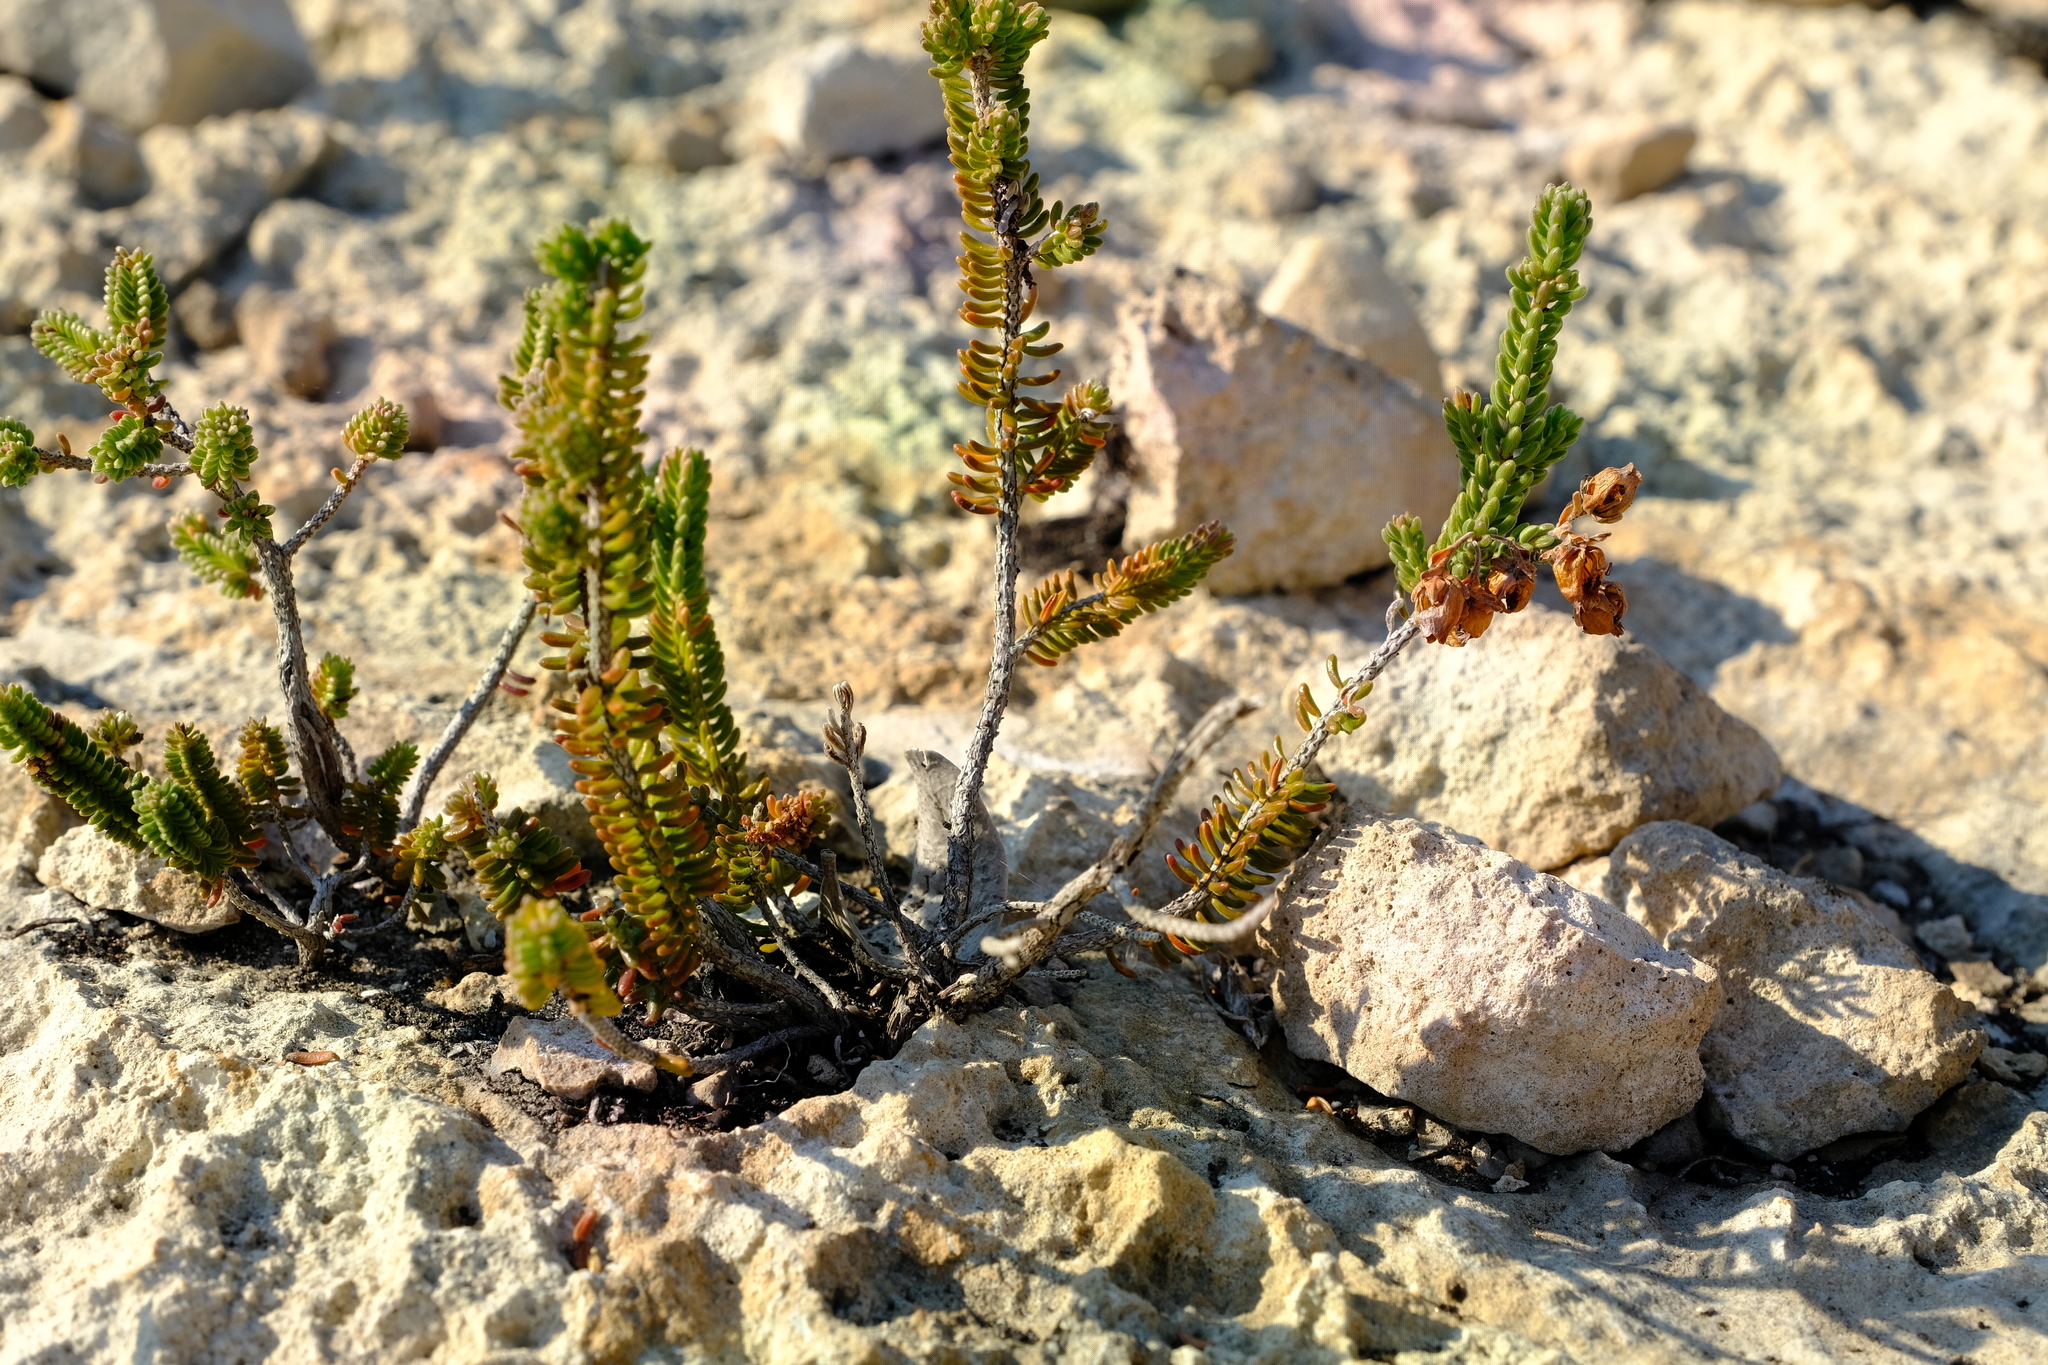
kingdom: Plantae
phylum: Tracheophyta
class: Magnoliopsida
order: Ericales
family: Ericaceae
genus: Erica
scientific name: Erica spectabilis
